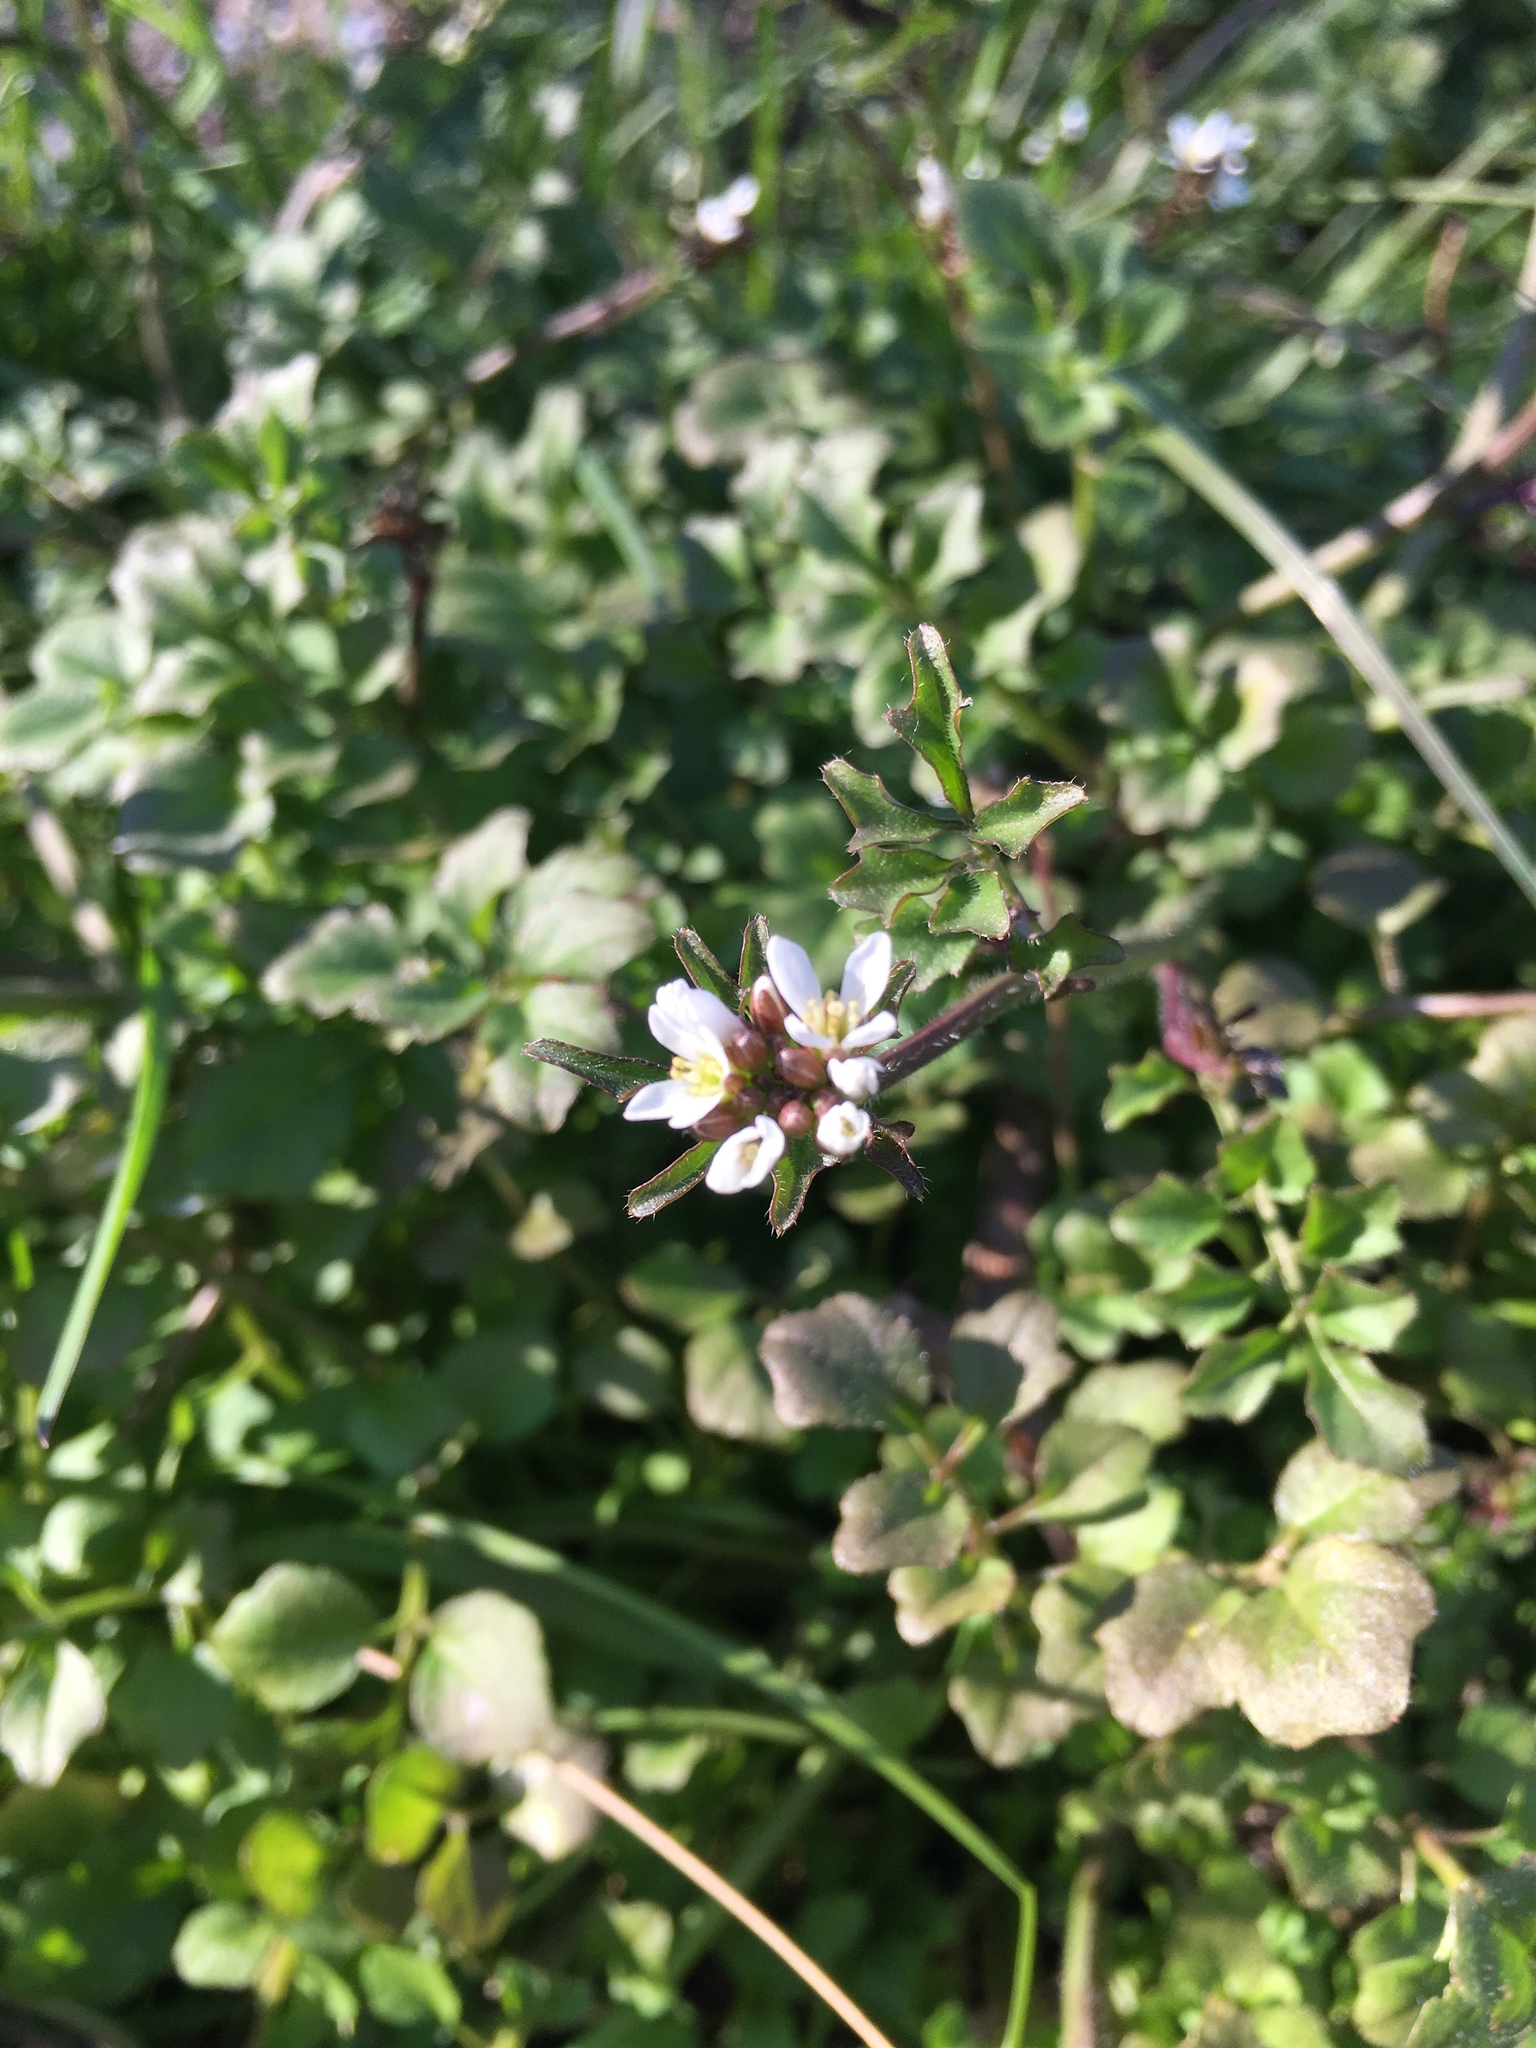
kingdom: Plantae
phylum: Tracheophyta
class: Magnoliopsida
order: Brassicales
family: Brassicaceae
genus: Cardamine
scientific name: Cardamine hirsuta
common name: Hairy bittercress
